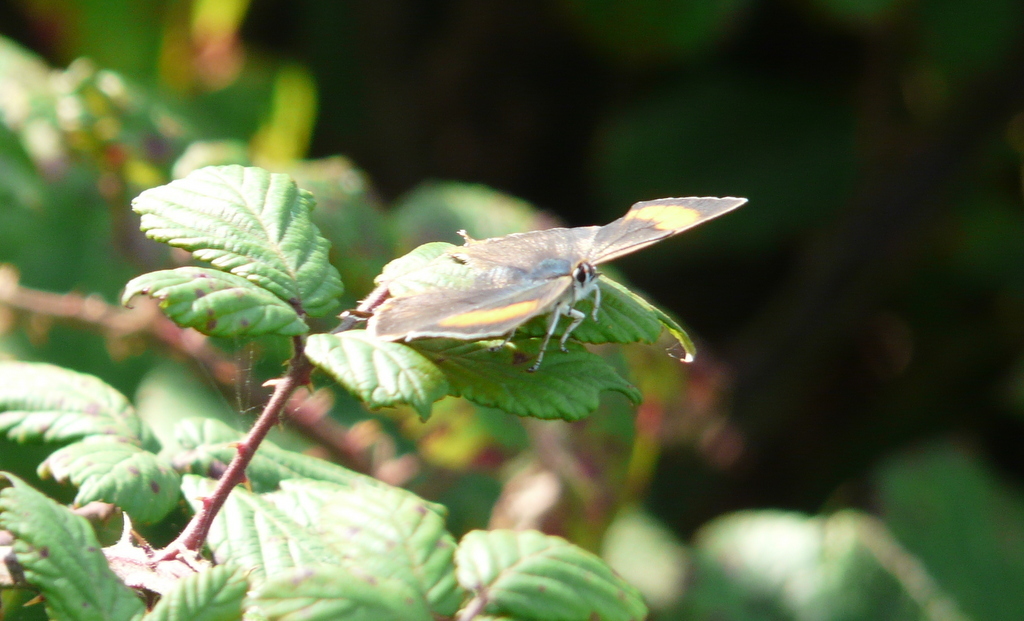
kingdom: Animalia
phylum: Arthropoda
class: Insecta
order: Lepidoptera
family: Lycaenidae
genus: Thecla
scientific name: Thecla betulae
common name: Brown hairstreak
